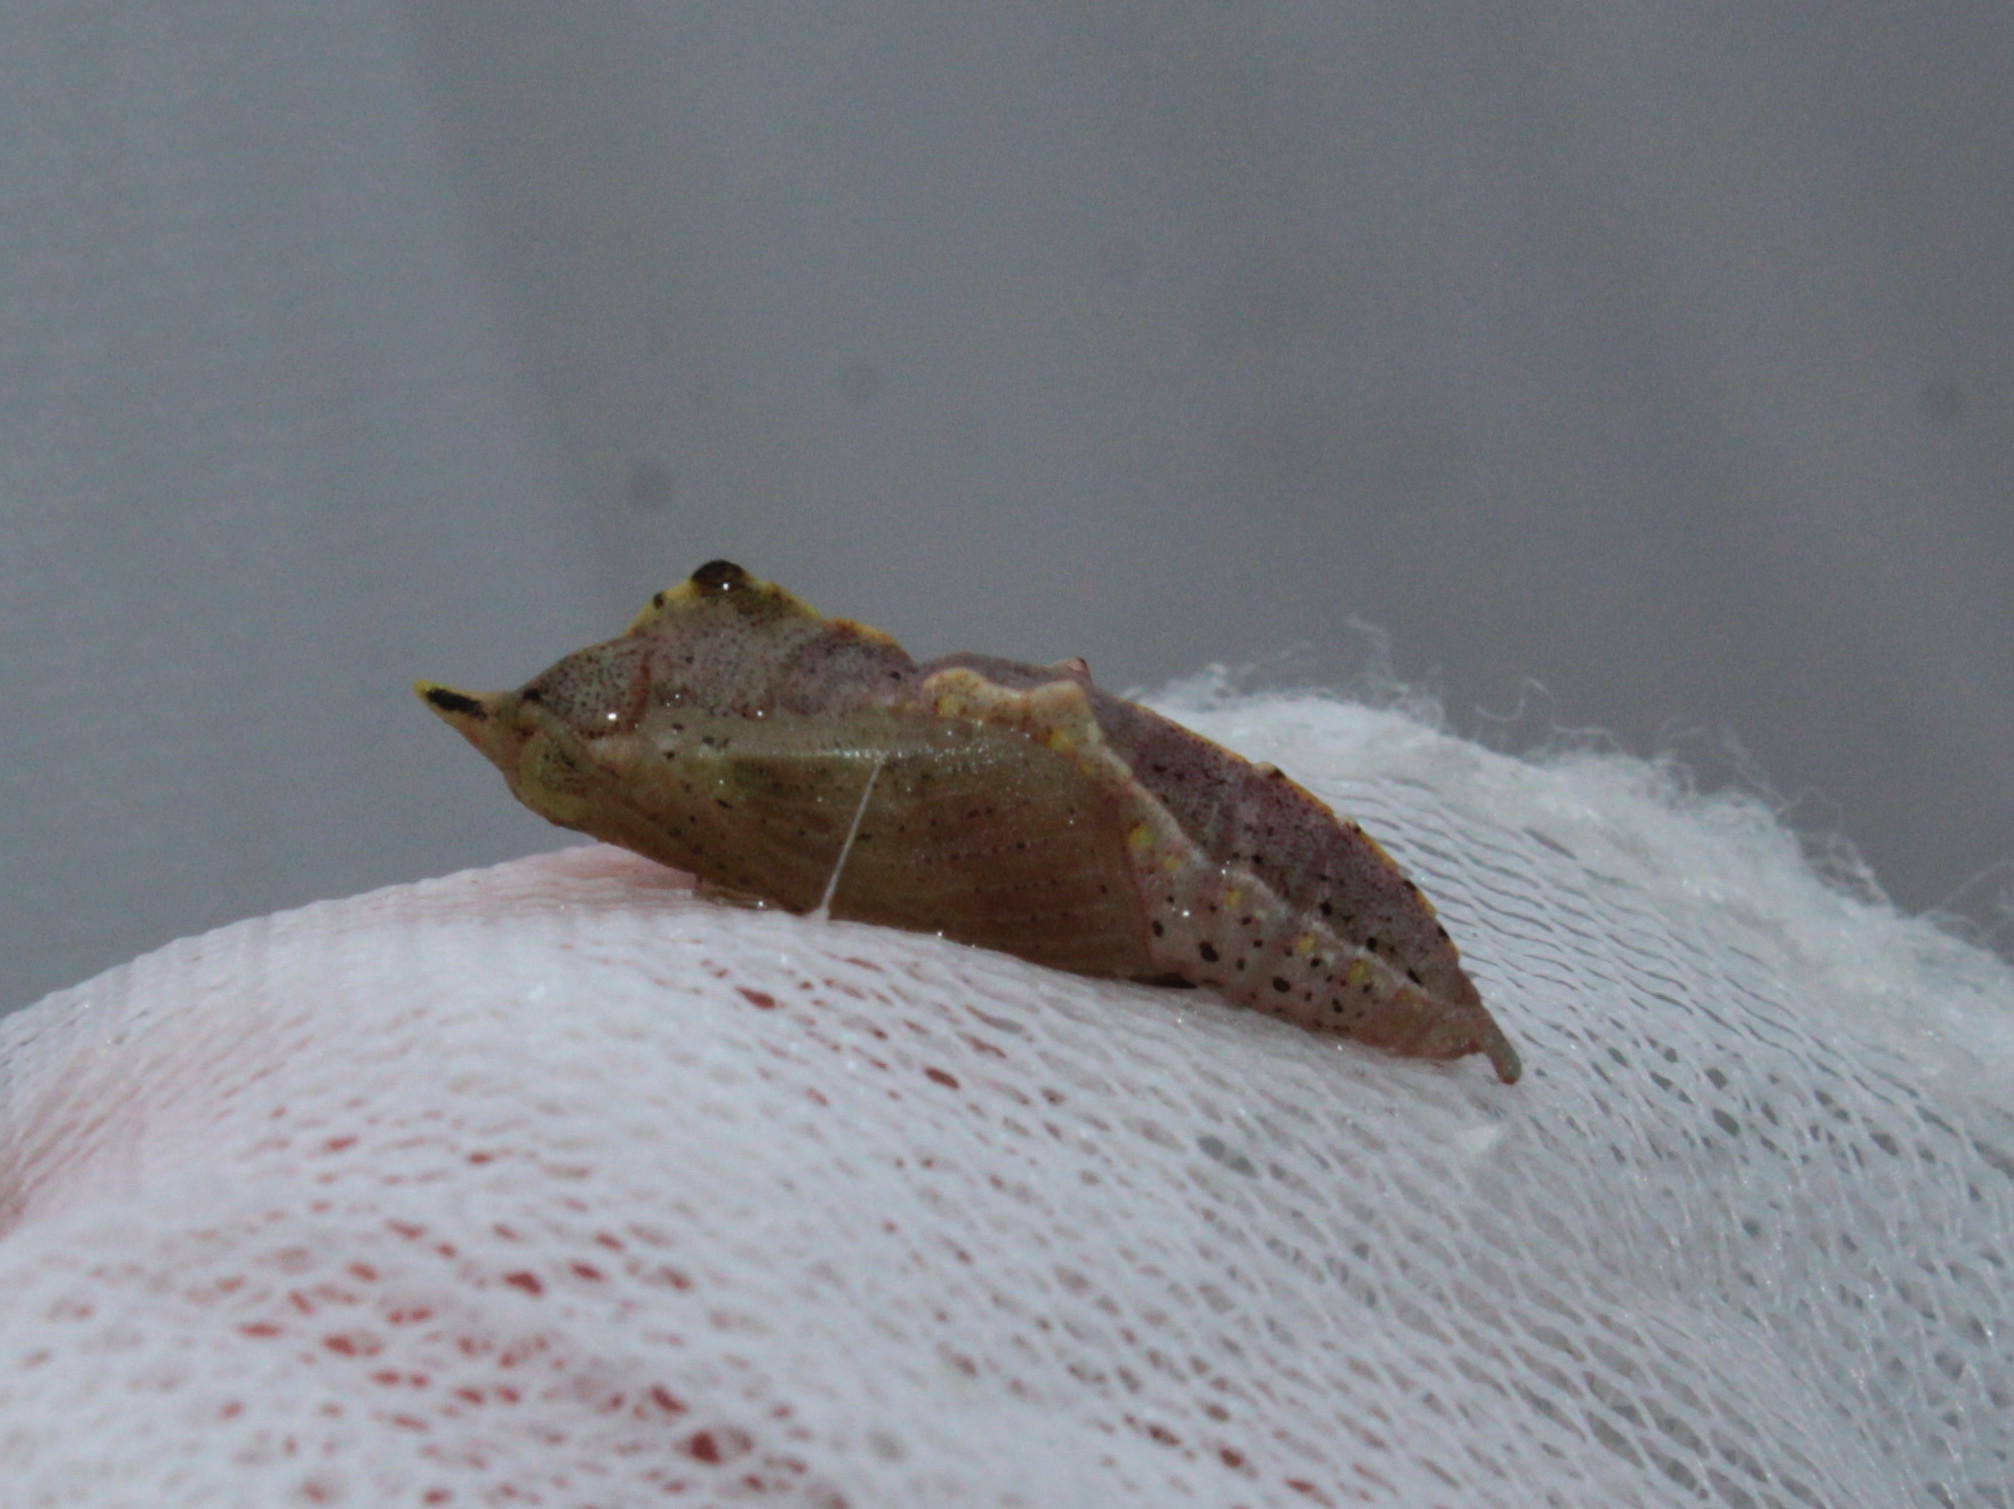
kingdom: Animalia
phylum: Arthropoda
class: Insecta
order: Lepidoptera
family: Pieridae
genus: Pieris
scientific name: Pieris rapae
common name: Small white
